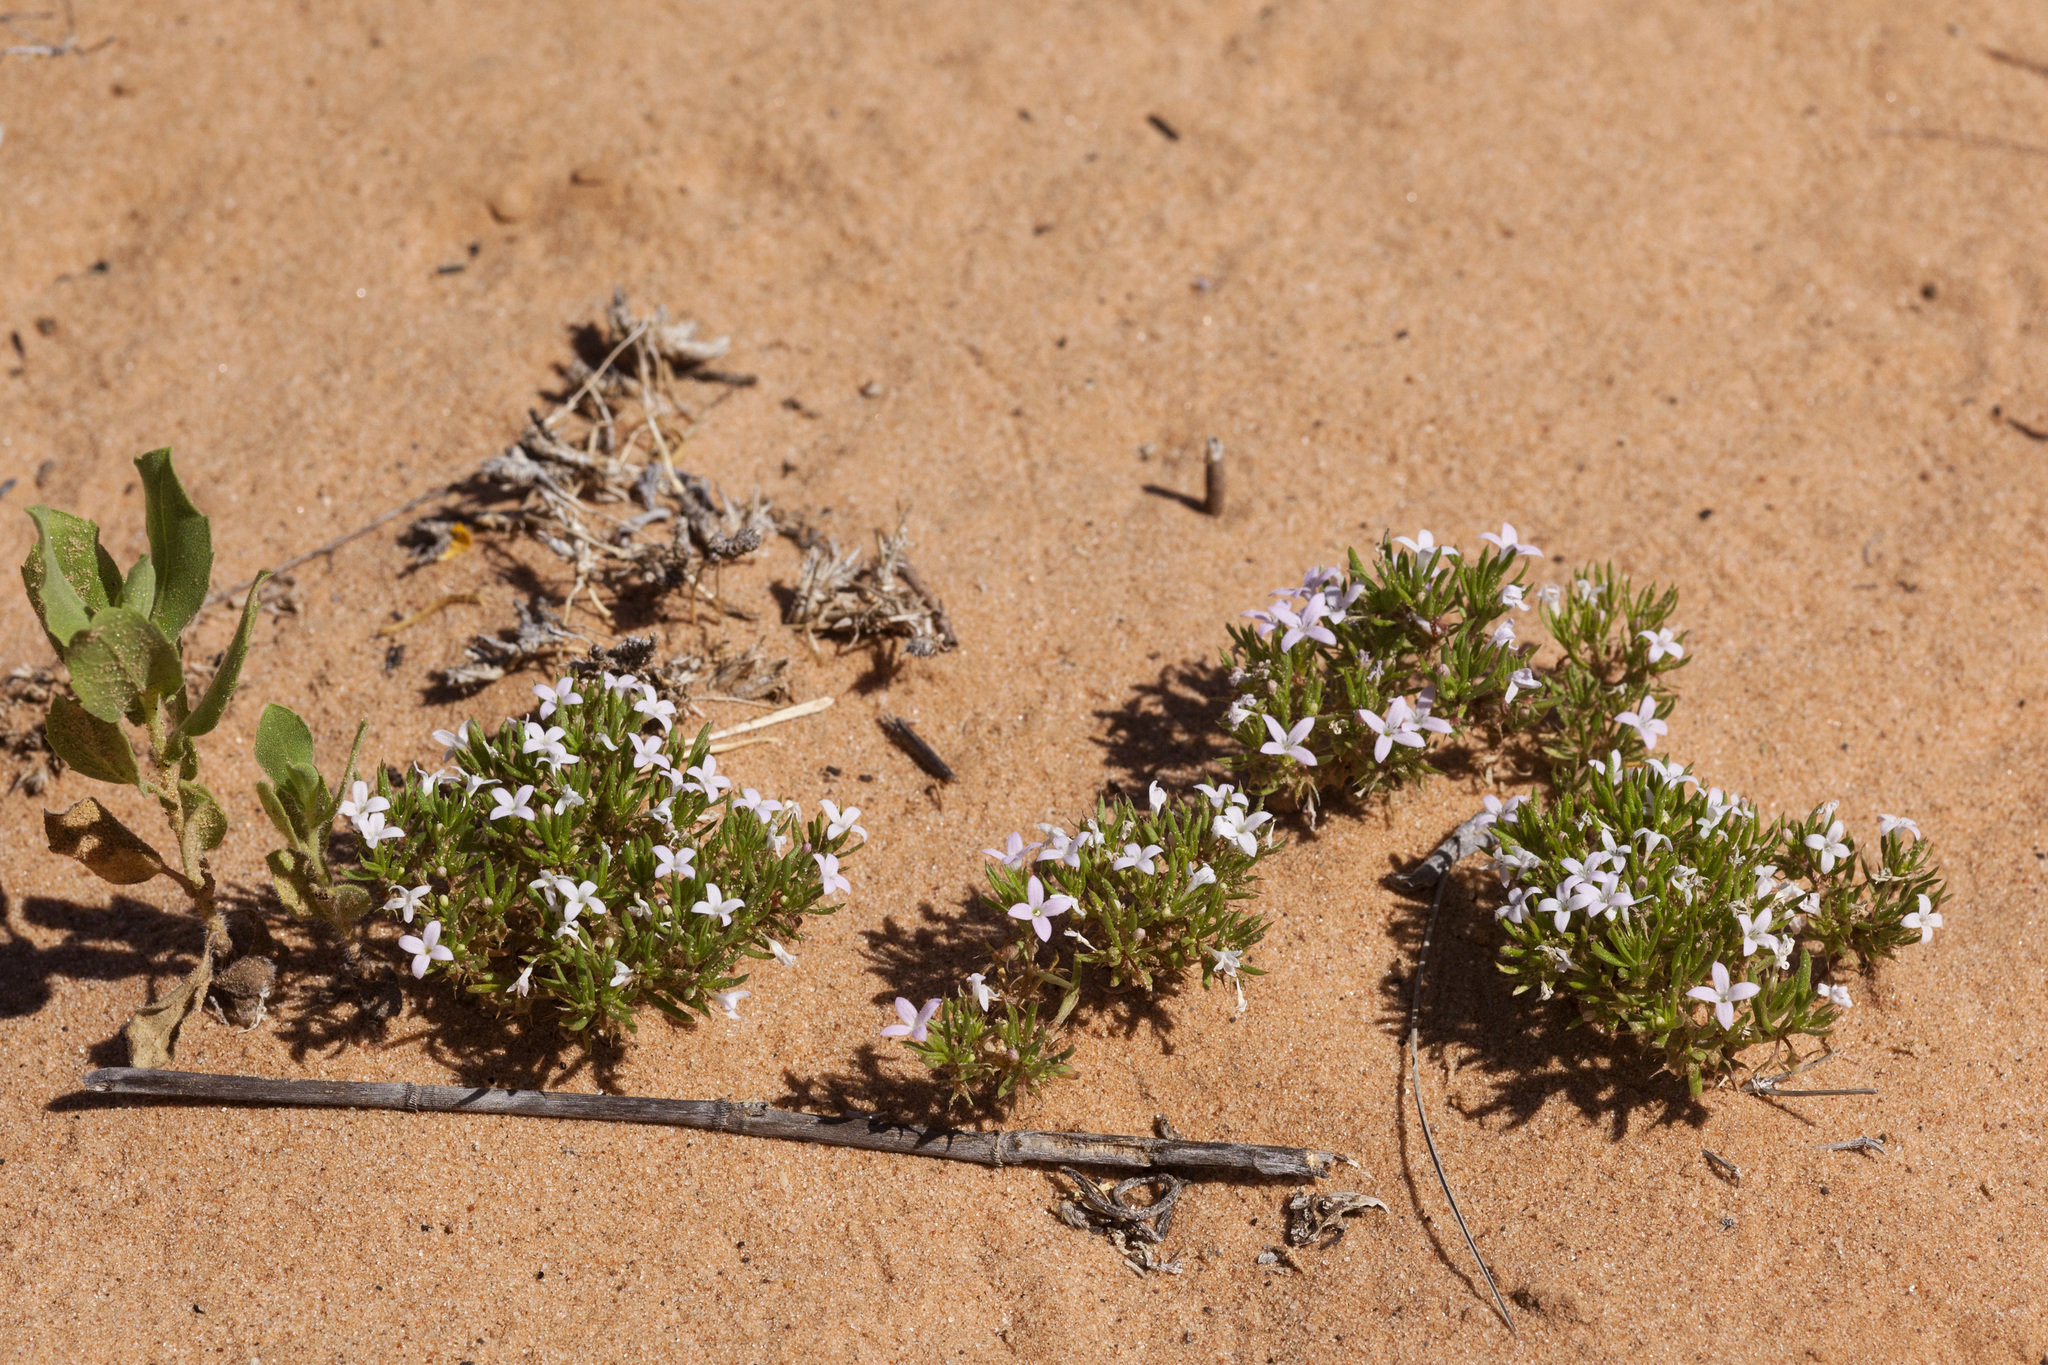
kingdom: Plantae
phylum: Tracheophyta
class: Magnoliopsida
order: Gentianales
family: Rubiaceae
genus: Houstonia
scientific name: Houstonia humifusa
